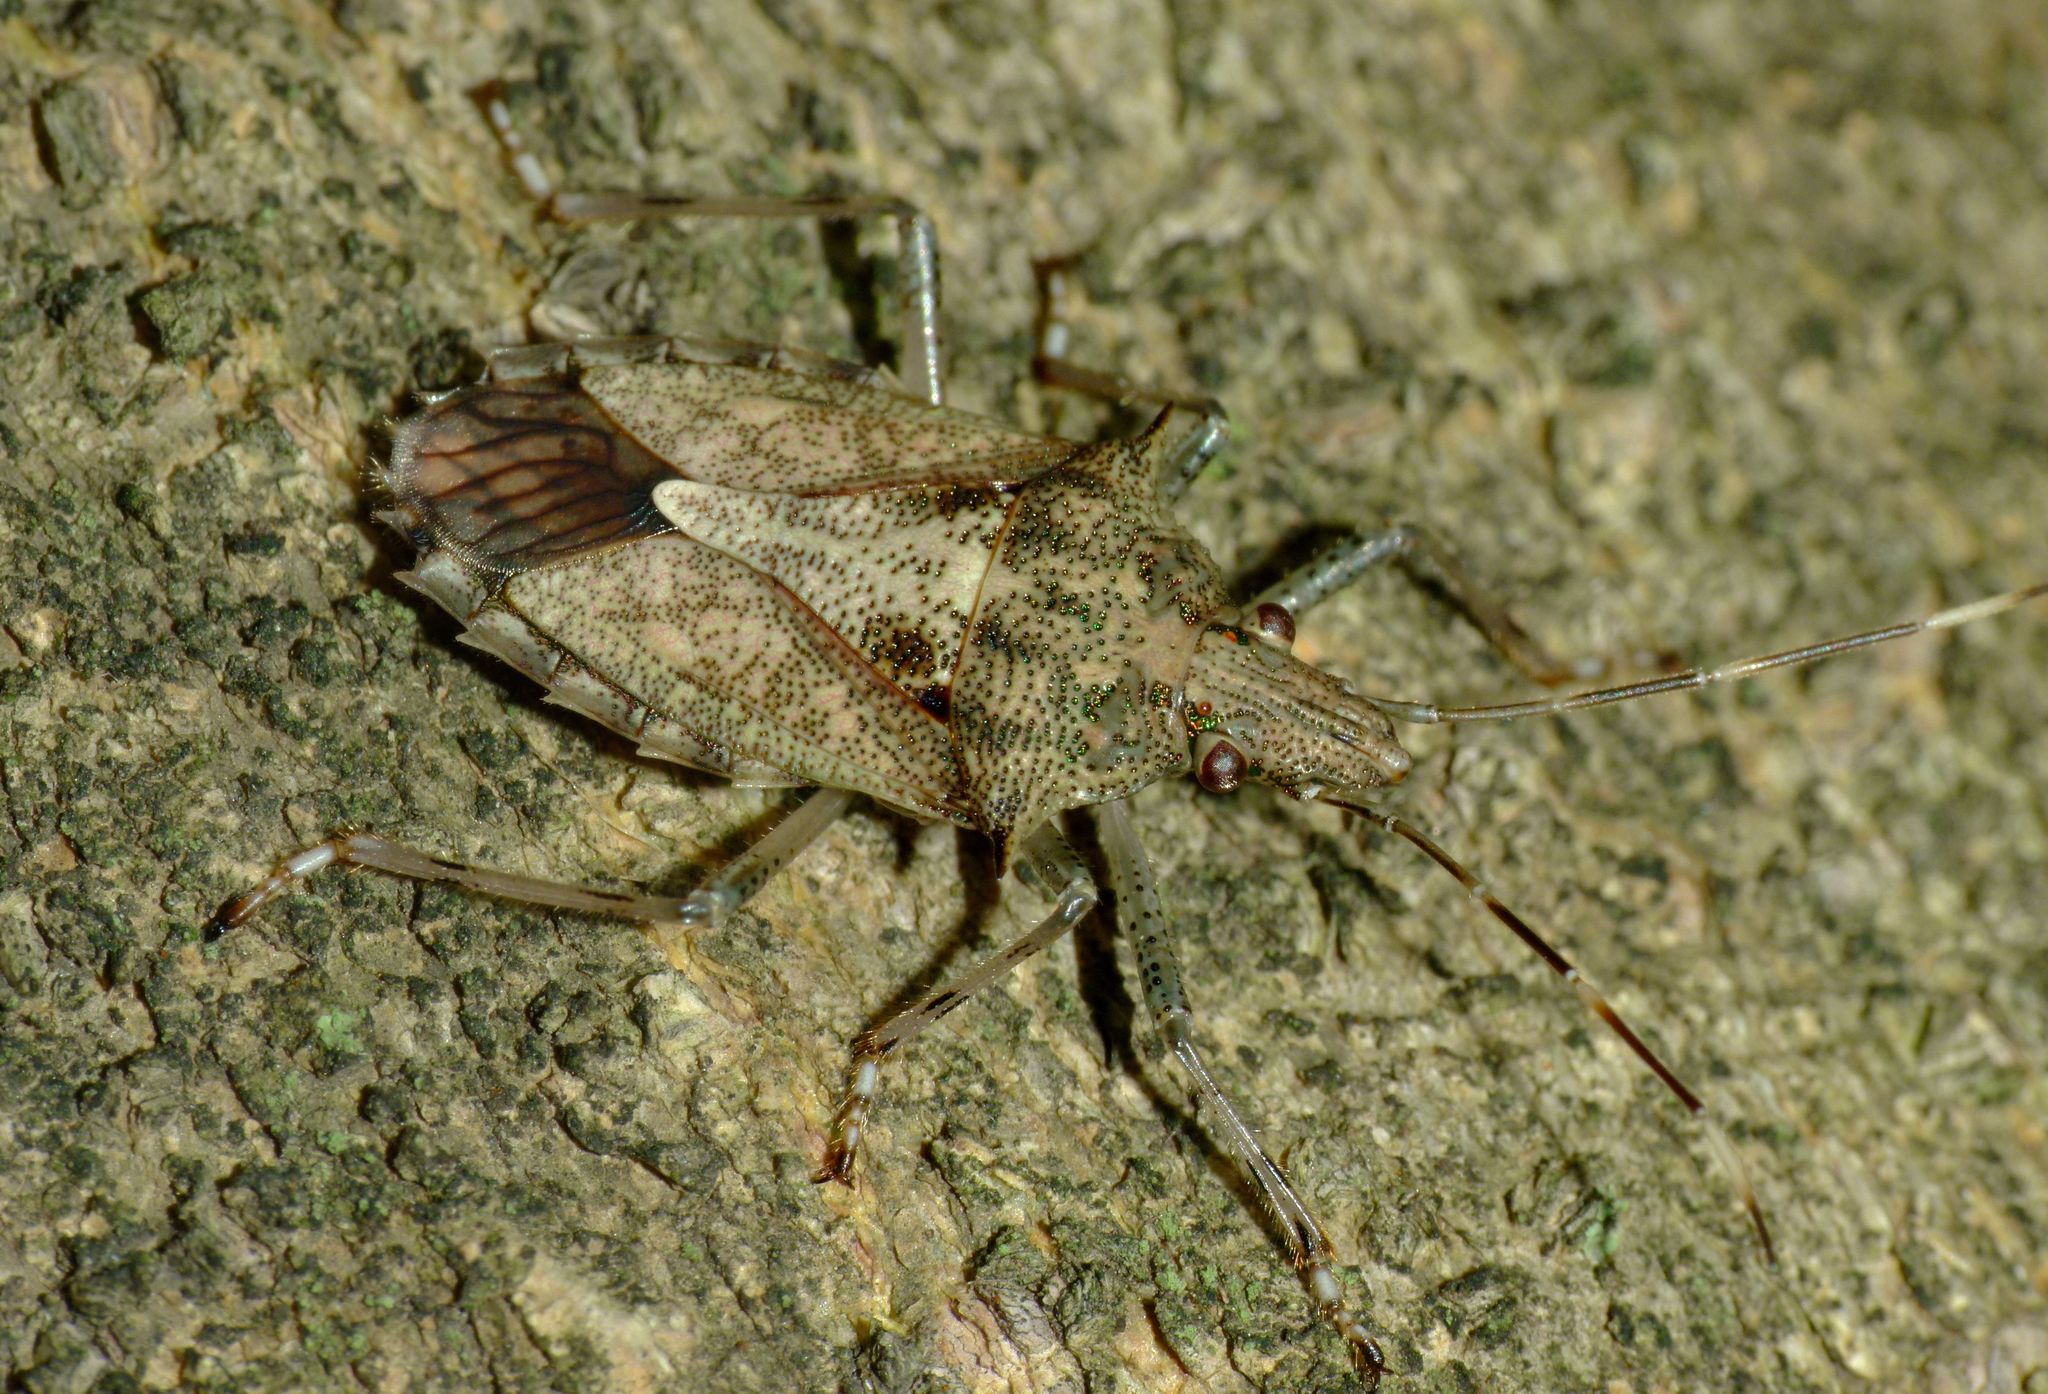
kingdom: Animalia
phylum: Arthropoda
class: Insecta
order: Hemiptera
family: Pentatomidae
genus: Bromocoris
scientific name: Bromocoris
